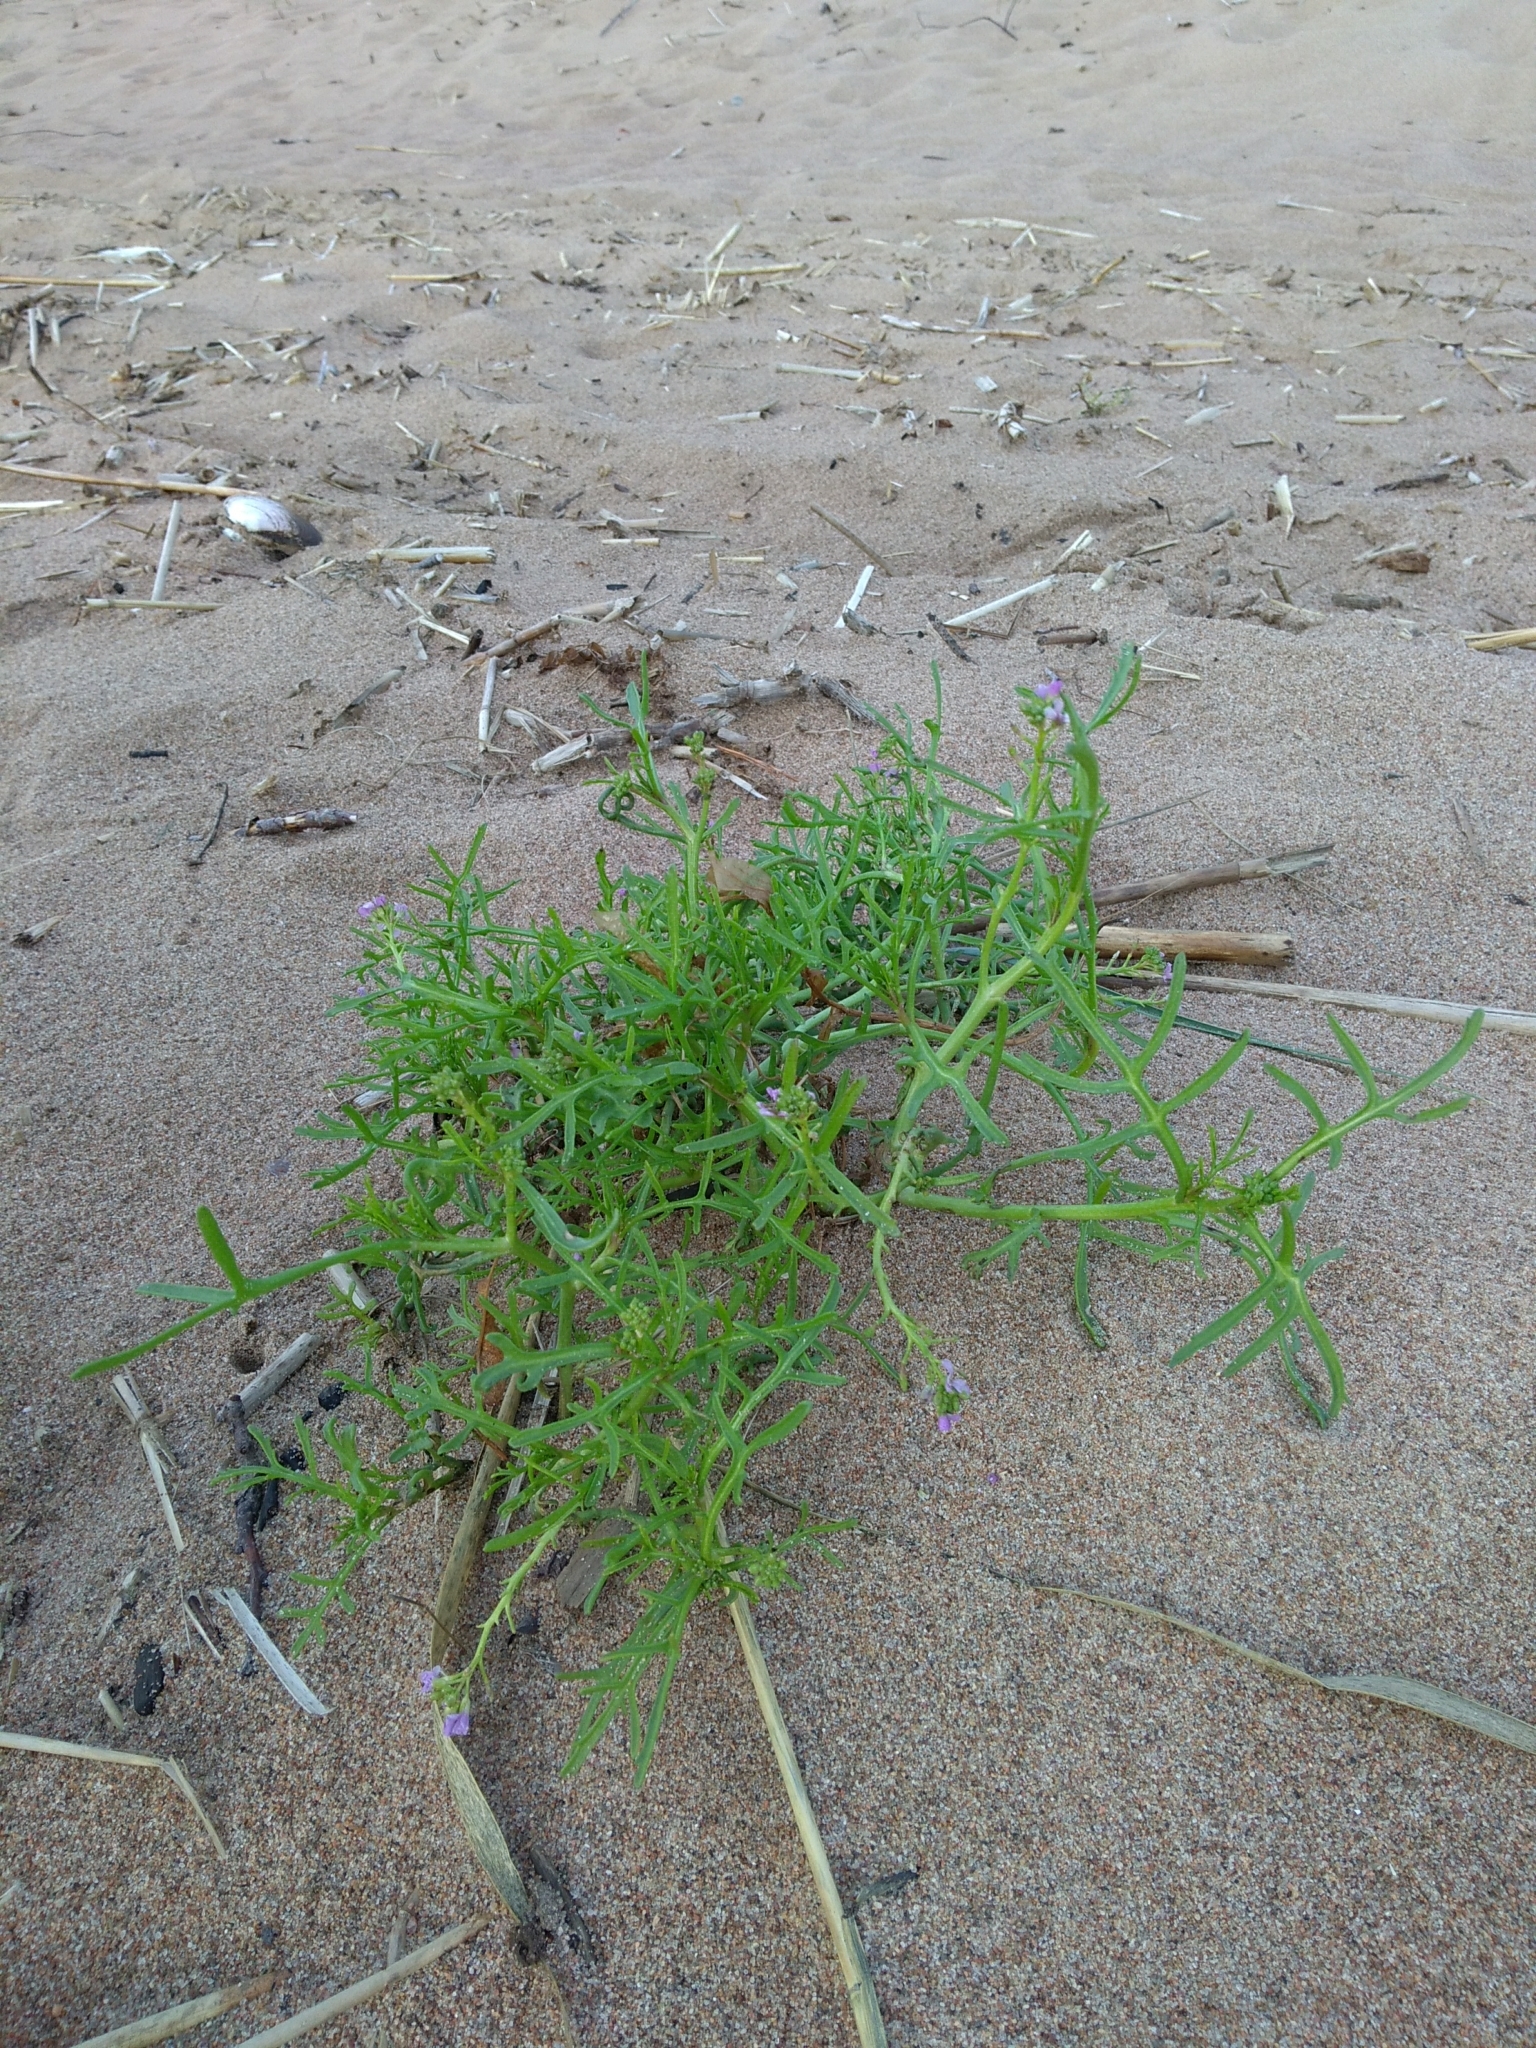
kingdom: Plantae
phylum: Tracheophyta
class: Magnoliopsida
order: Brassicales
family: Brassicaceae
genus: Cakile
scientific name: Cakile maritima
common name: Sea rocket
